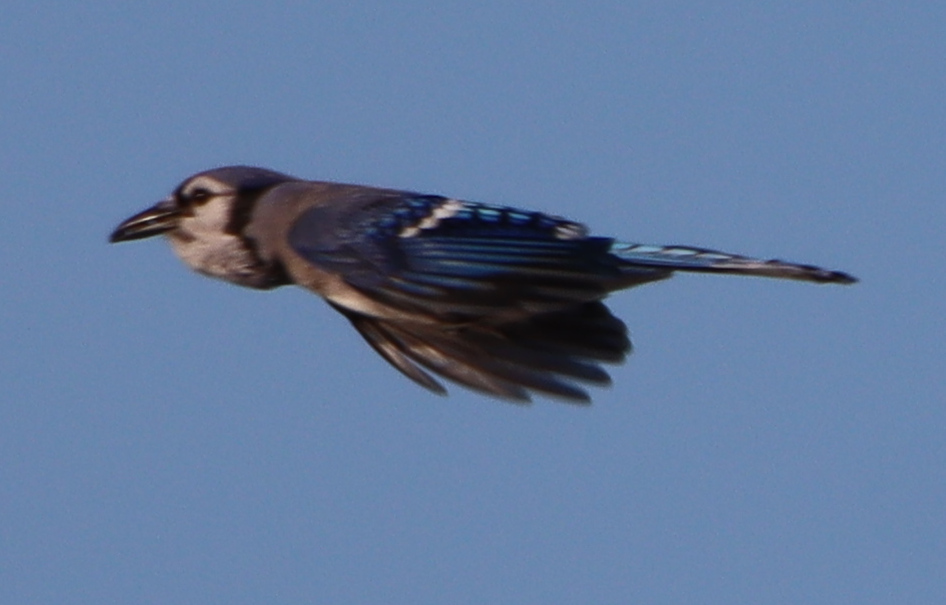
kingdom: Animalia
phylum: Chordata
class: Aves
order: Passeriformes
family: Corvidae
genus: Cyanocitta
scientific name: Cyanocitta cristata
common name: Blue jay
